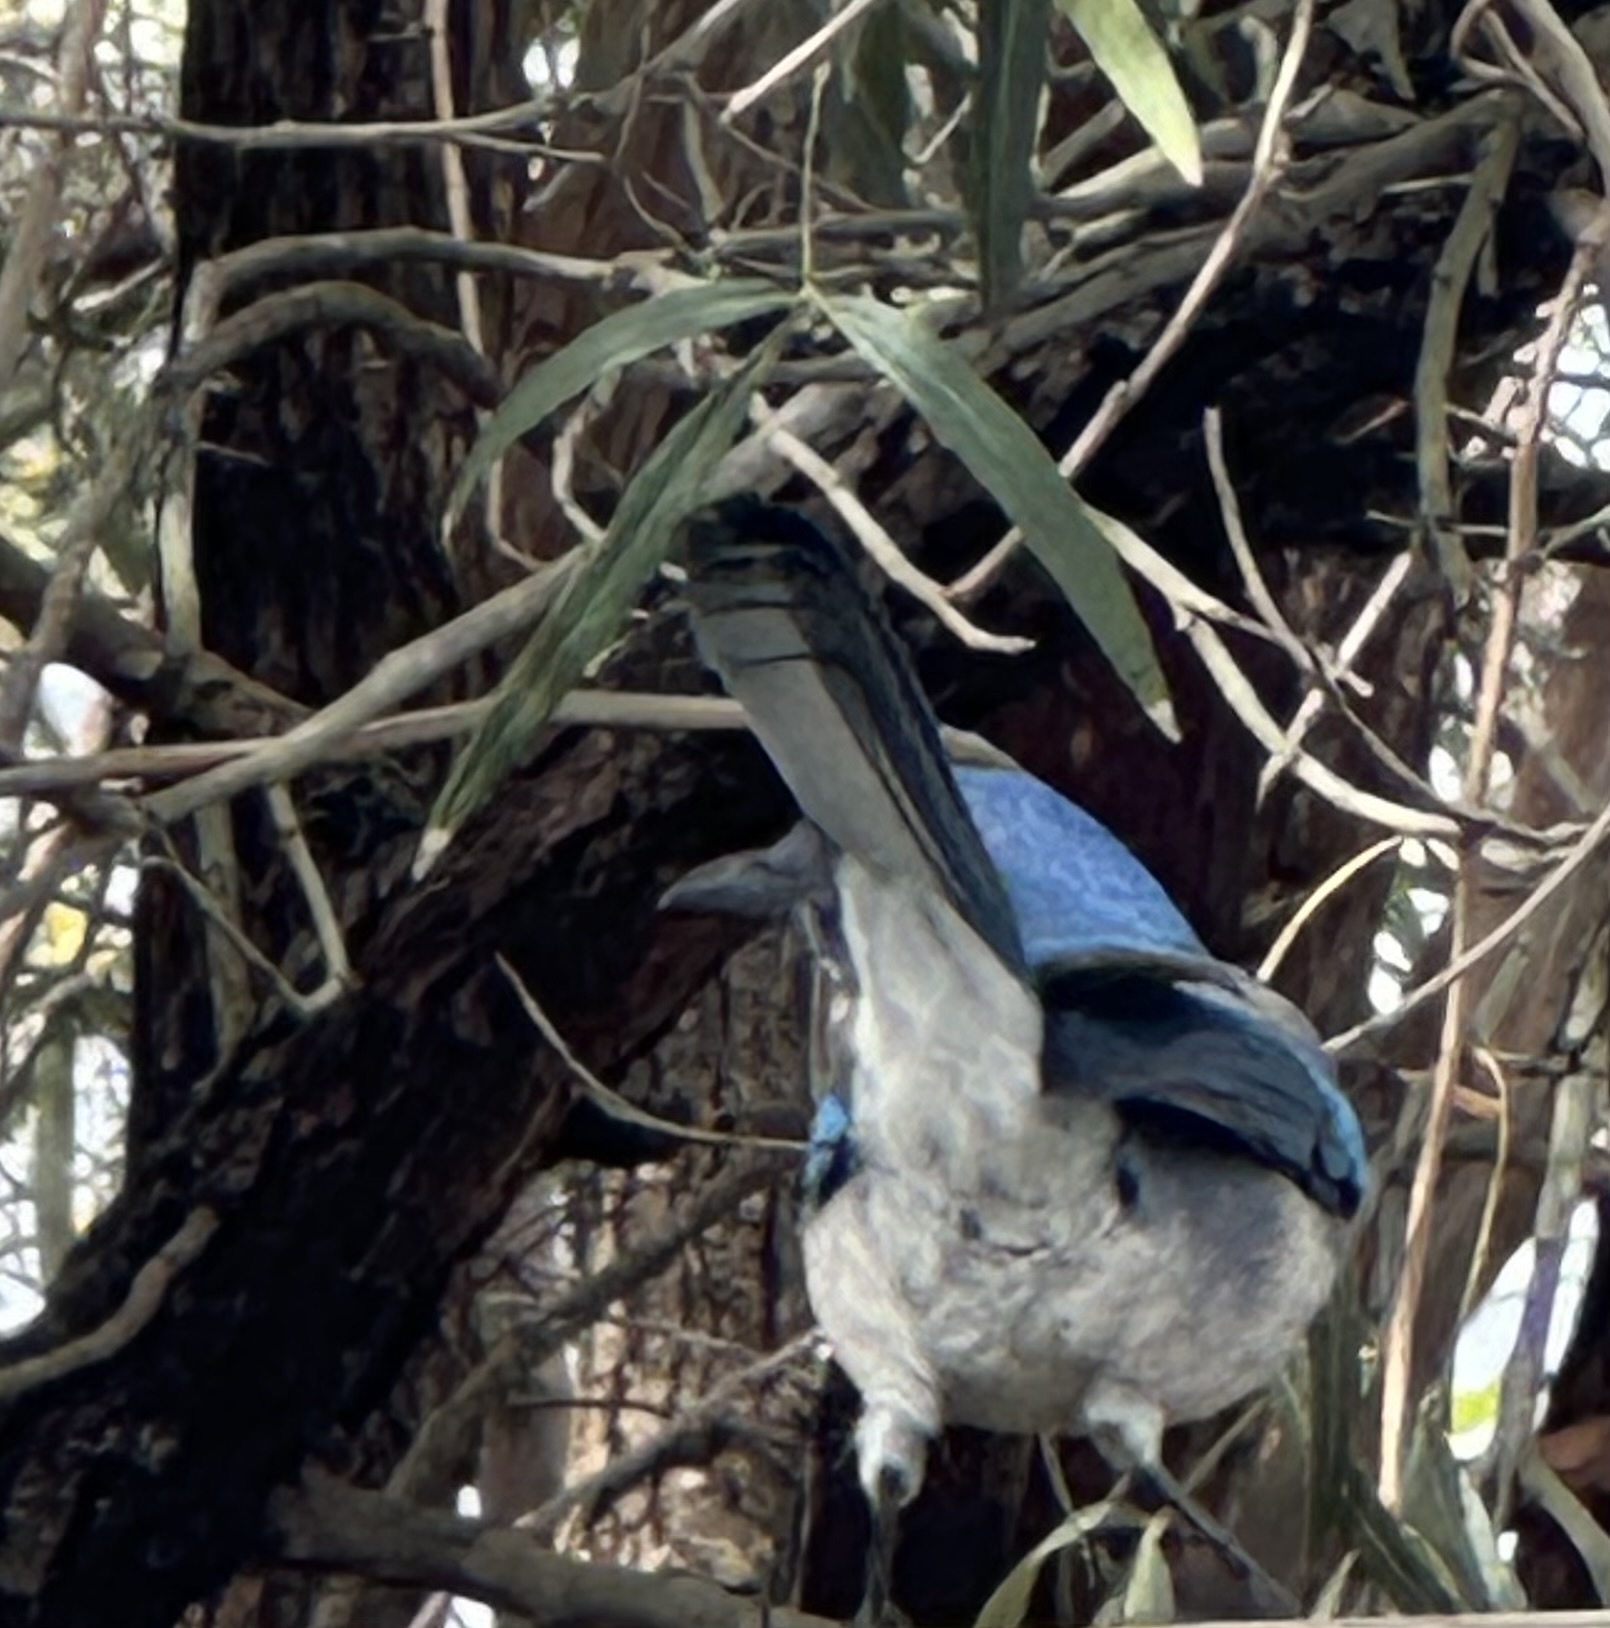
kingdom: Animalia
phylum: Chordata
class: Aves
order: Passeriformes
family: Corvidae
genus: Aphelocoma
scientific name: Aphelocoma californica
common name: California scrub-jay
